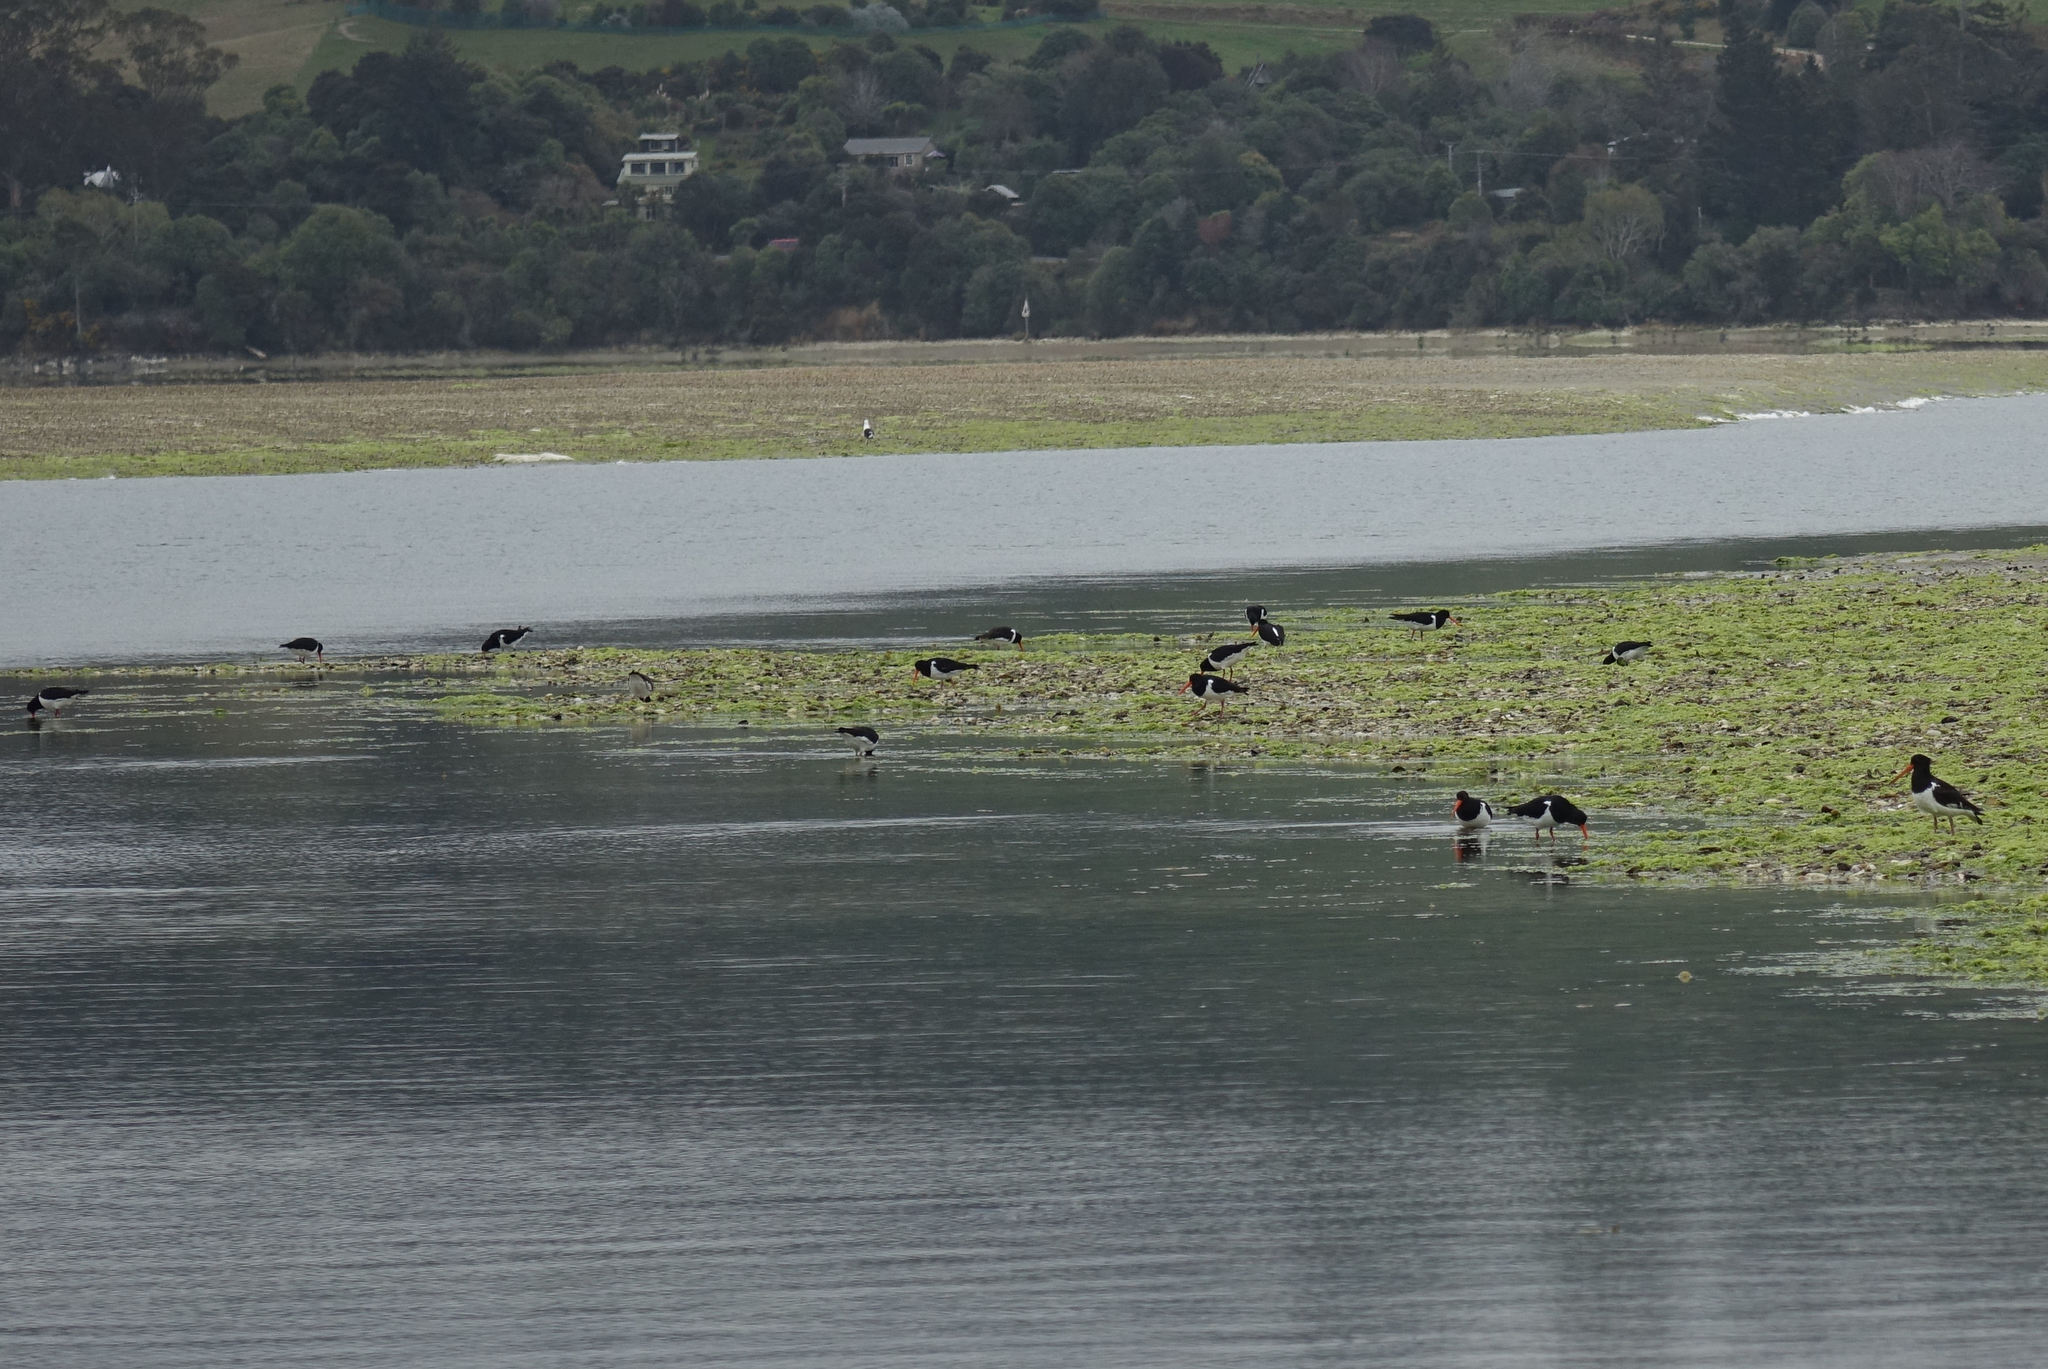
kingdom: Animalia
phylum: Chordata
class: Aves
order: Charadriiformes
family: Haematopodidae
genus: Haematopus
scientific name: Haematopus finschi
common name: South island oystercatcher
